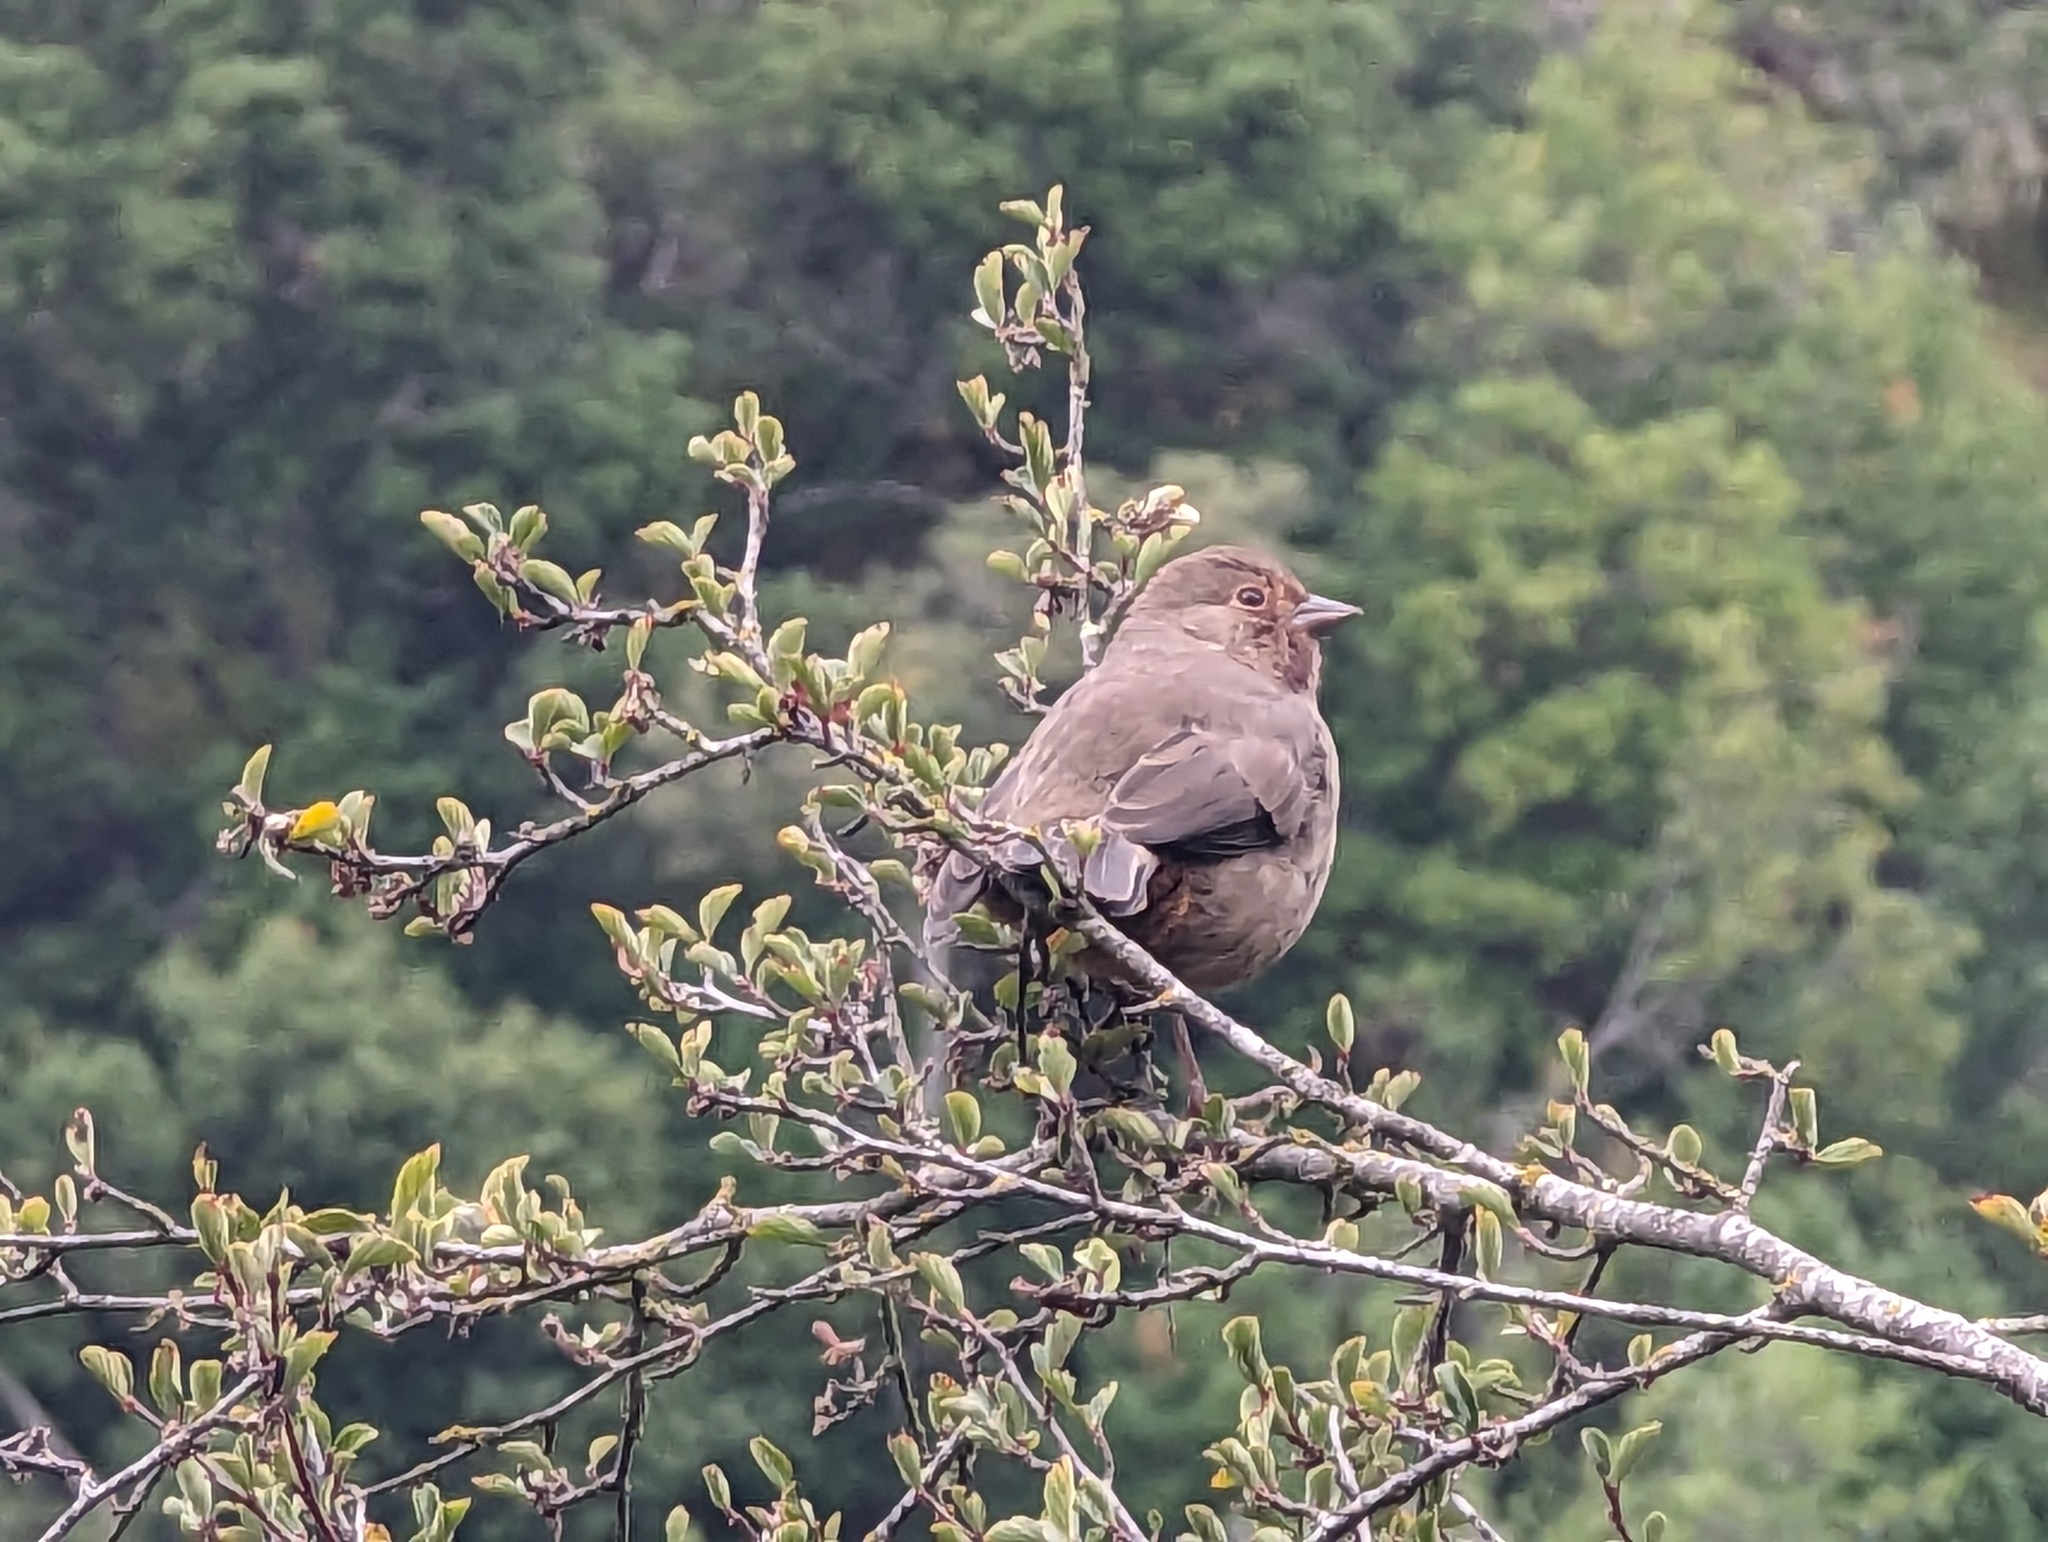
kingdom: Animalia
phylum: Chordata
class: Aves
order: Passeriformes
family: Passerellidae
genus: Melozone
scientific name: Melozone crissalis
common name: California towhee
